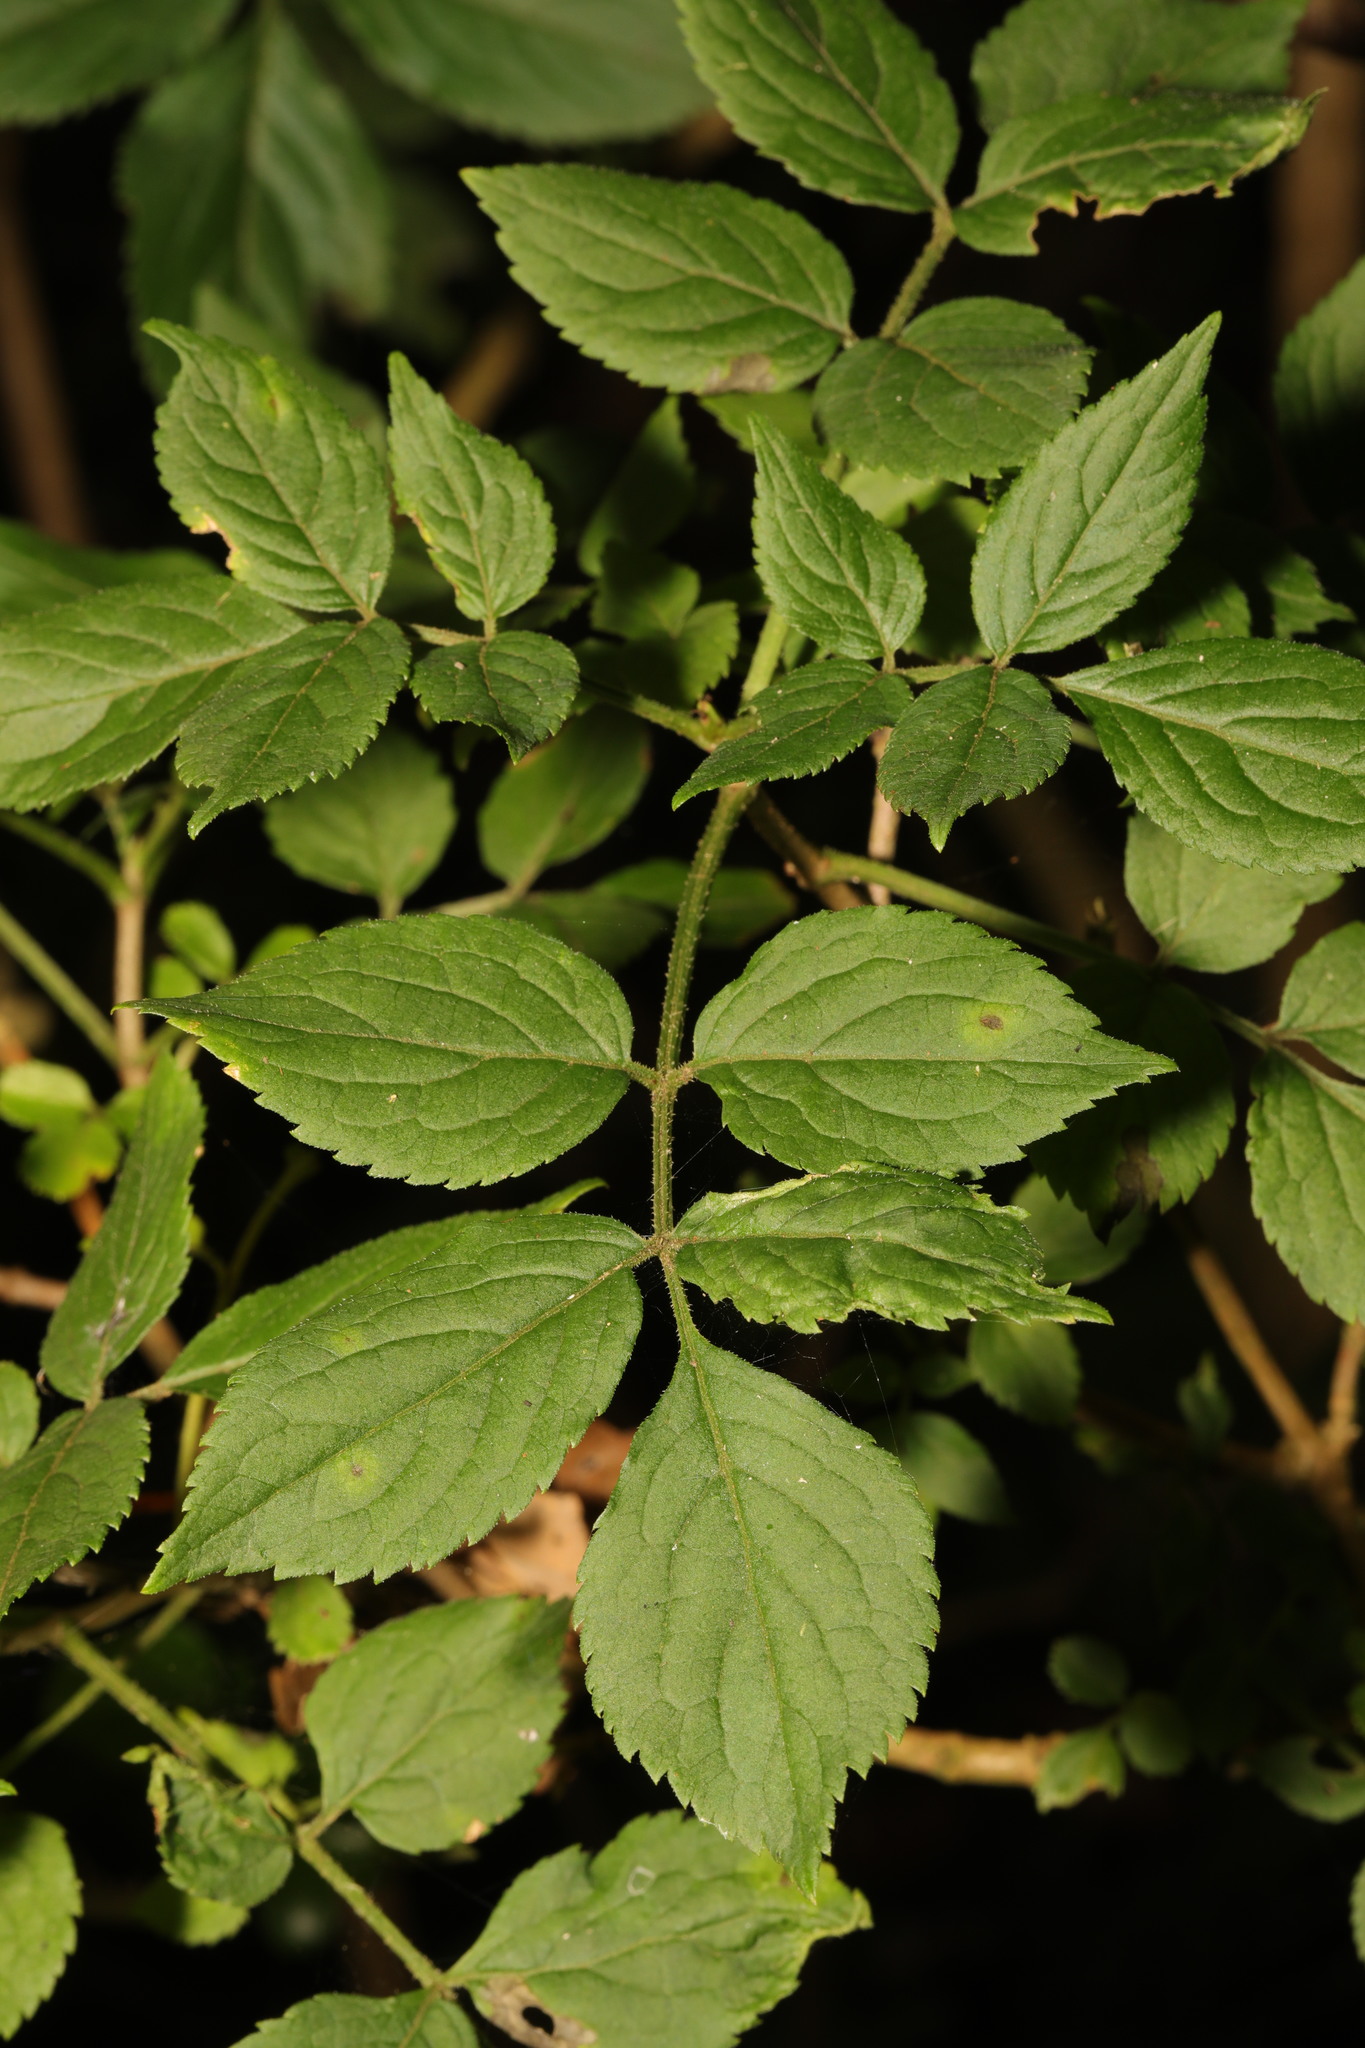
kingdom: Plantae
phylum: Tracheophyta
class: Magnoliopsida
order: Dipsacales
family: Viburnaceae
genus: Sambucus
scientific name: Sambucus nigra
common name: Elder
